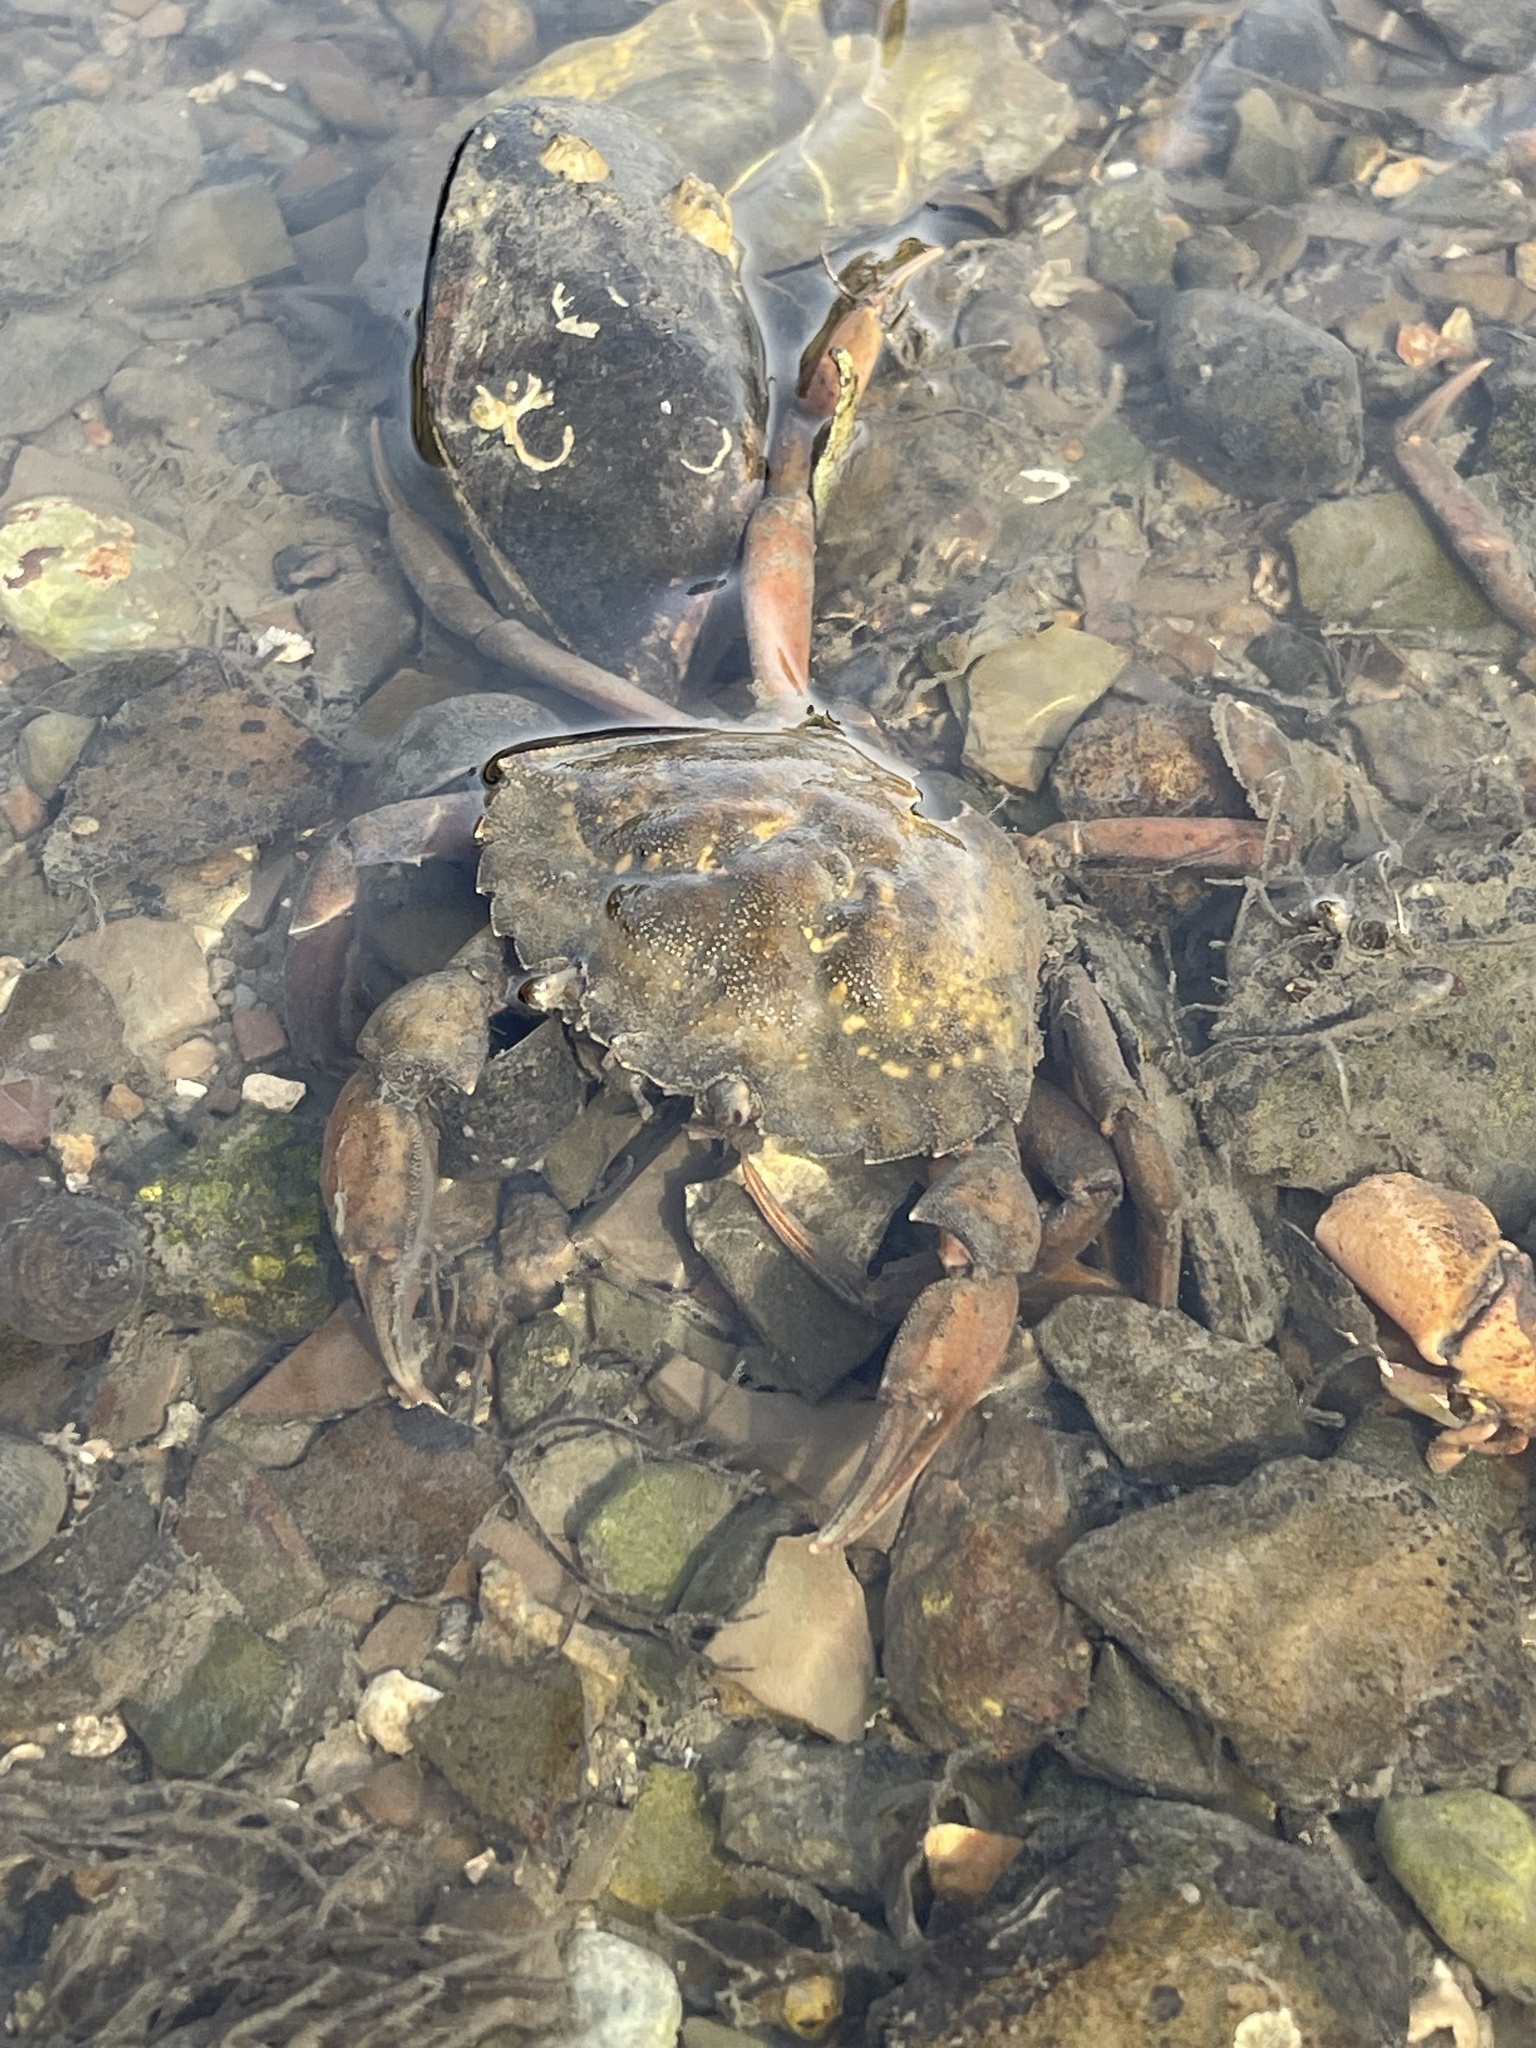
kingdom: Animalia
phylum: Arthropoda
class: Malacostraca
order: Decapoda
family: Carcinidae
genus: Carcinus
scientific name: Carcinus maenas
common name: European green crab
